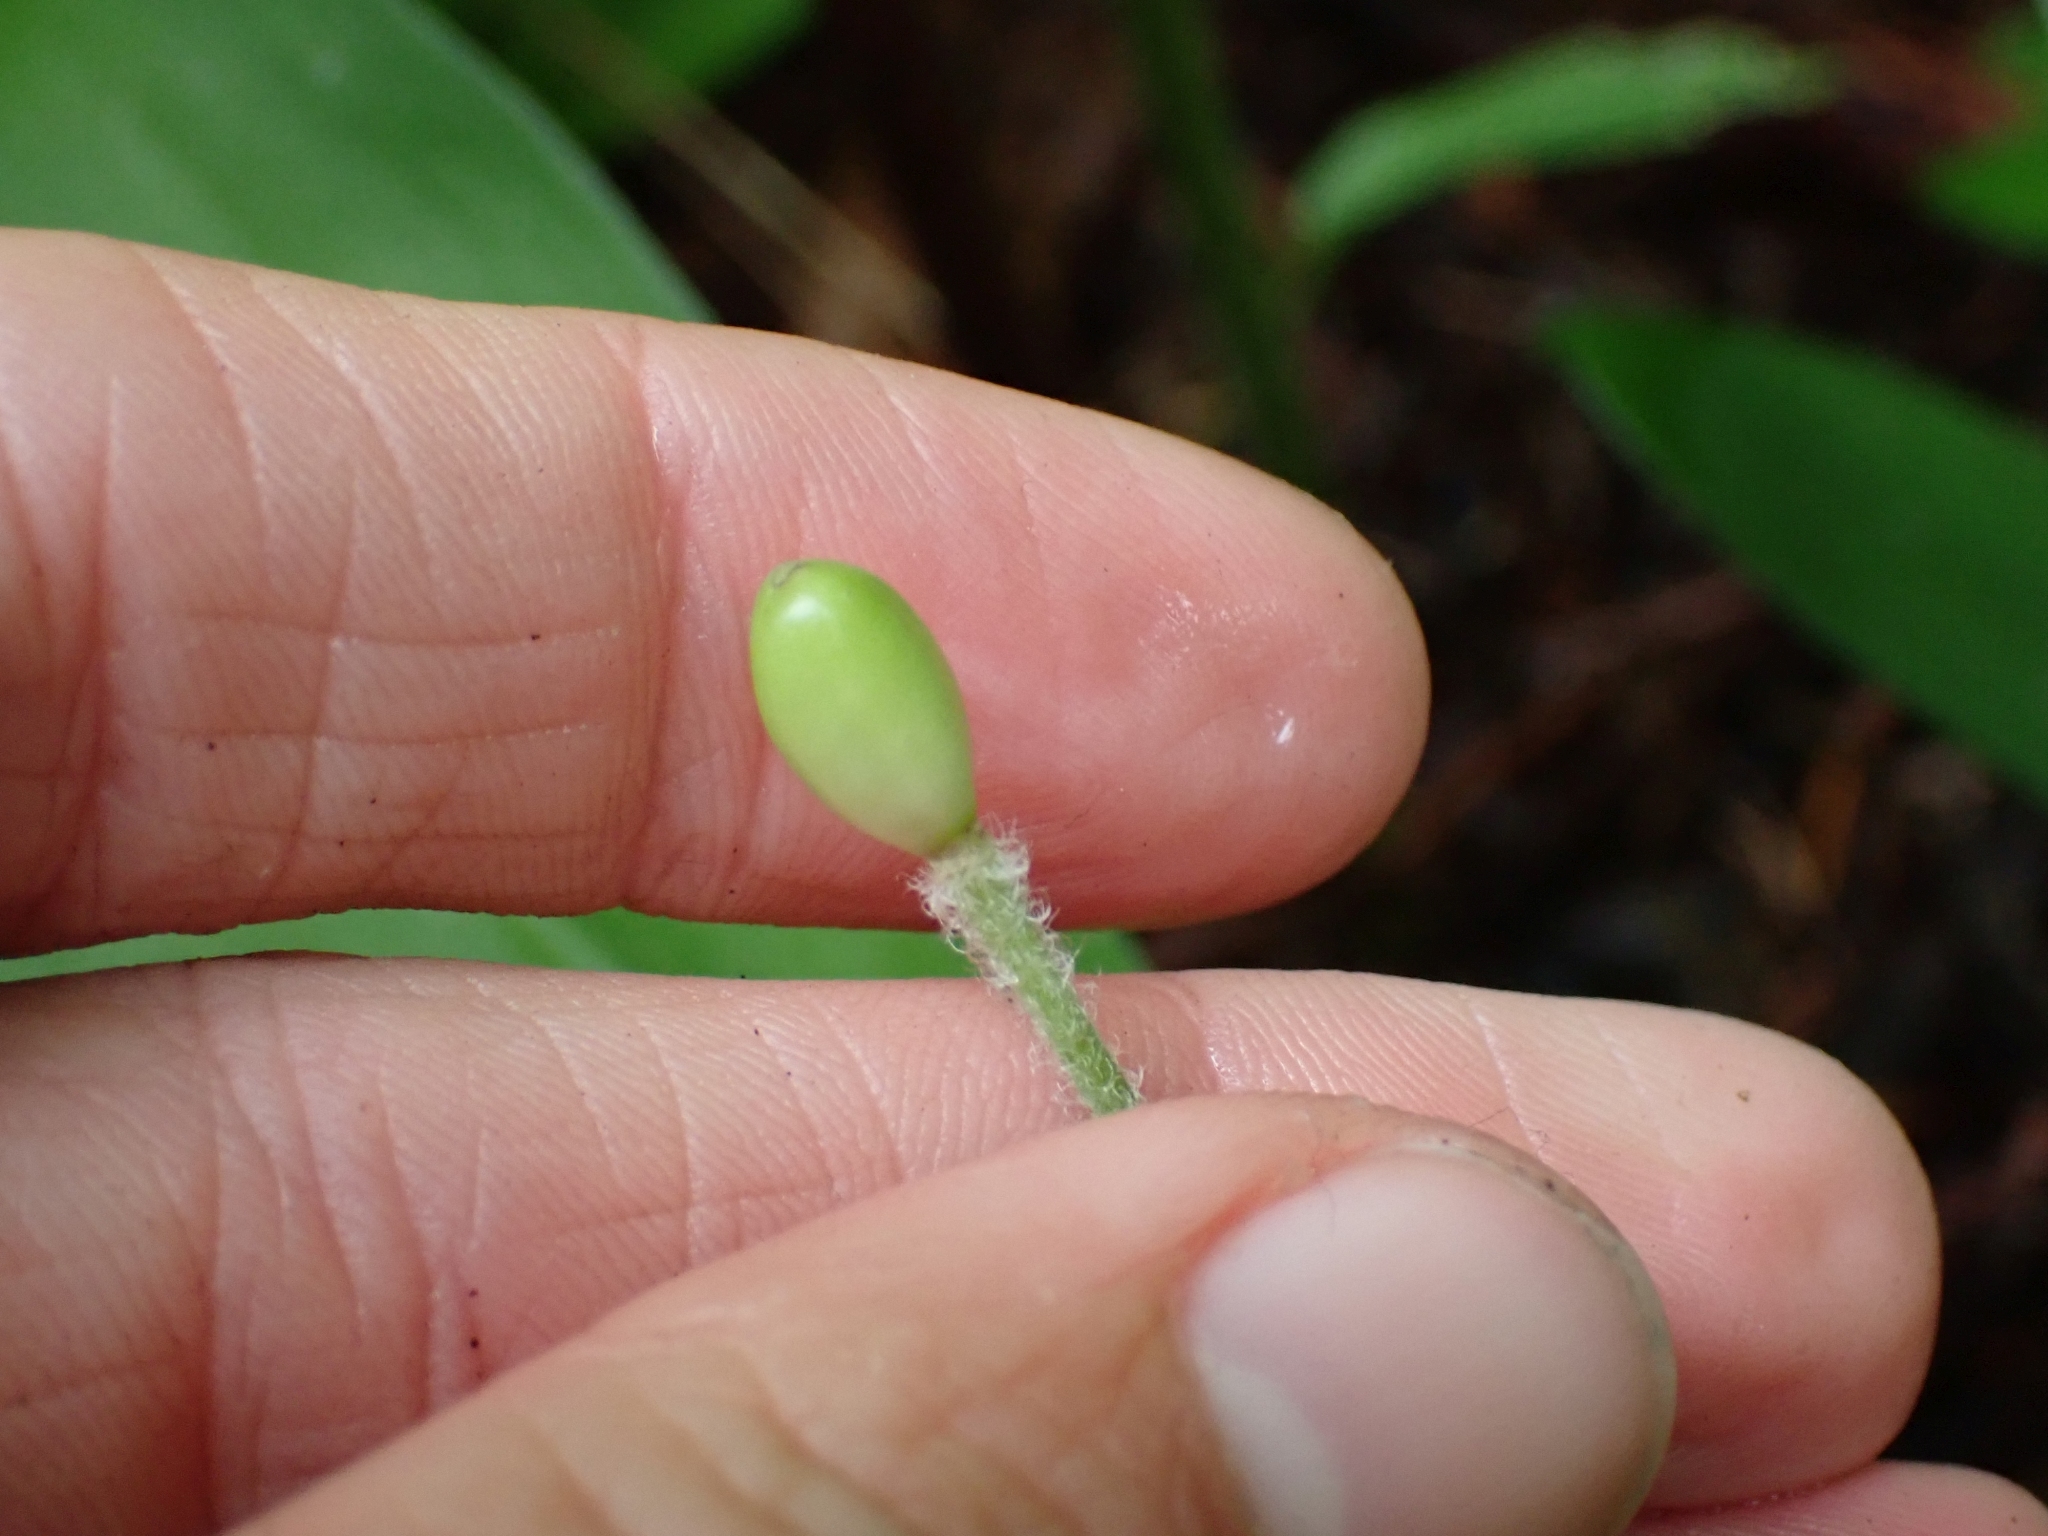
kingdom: Plantae
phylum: Tracheophyta
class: Liliopsida
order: Liliales
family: Liliaceae
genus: Clintonia
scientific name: Clintonia uniflora
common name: Queen's cup
